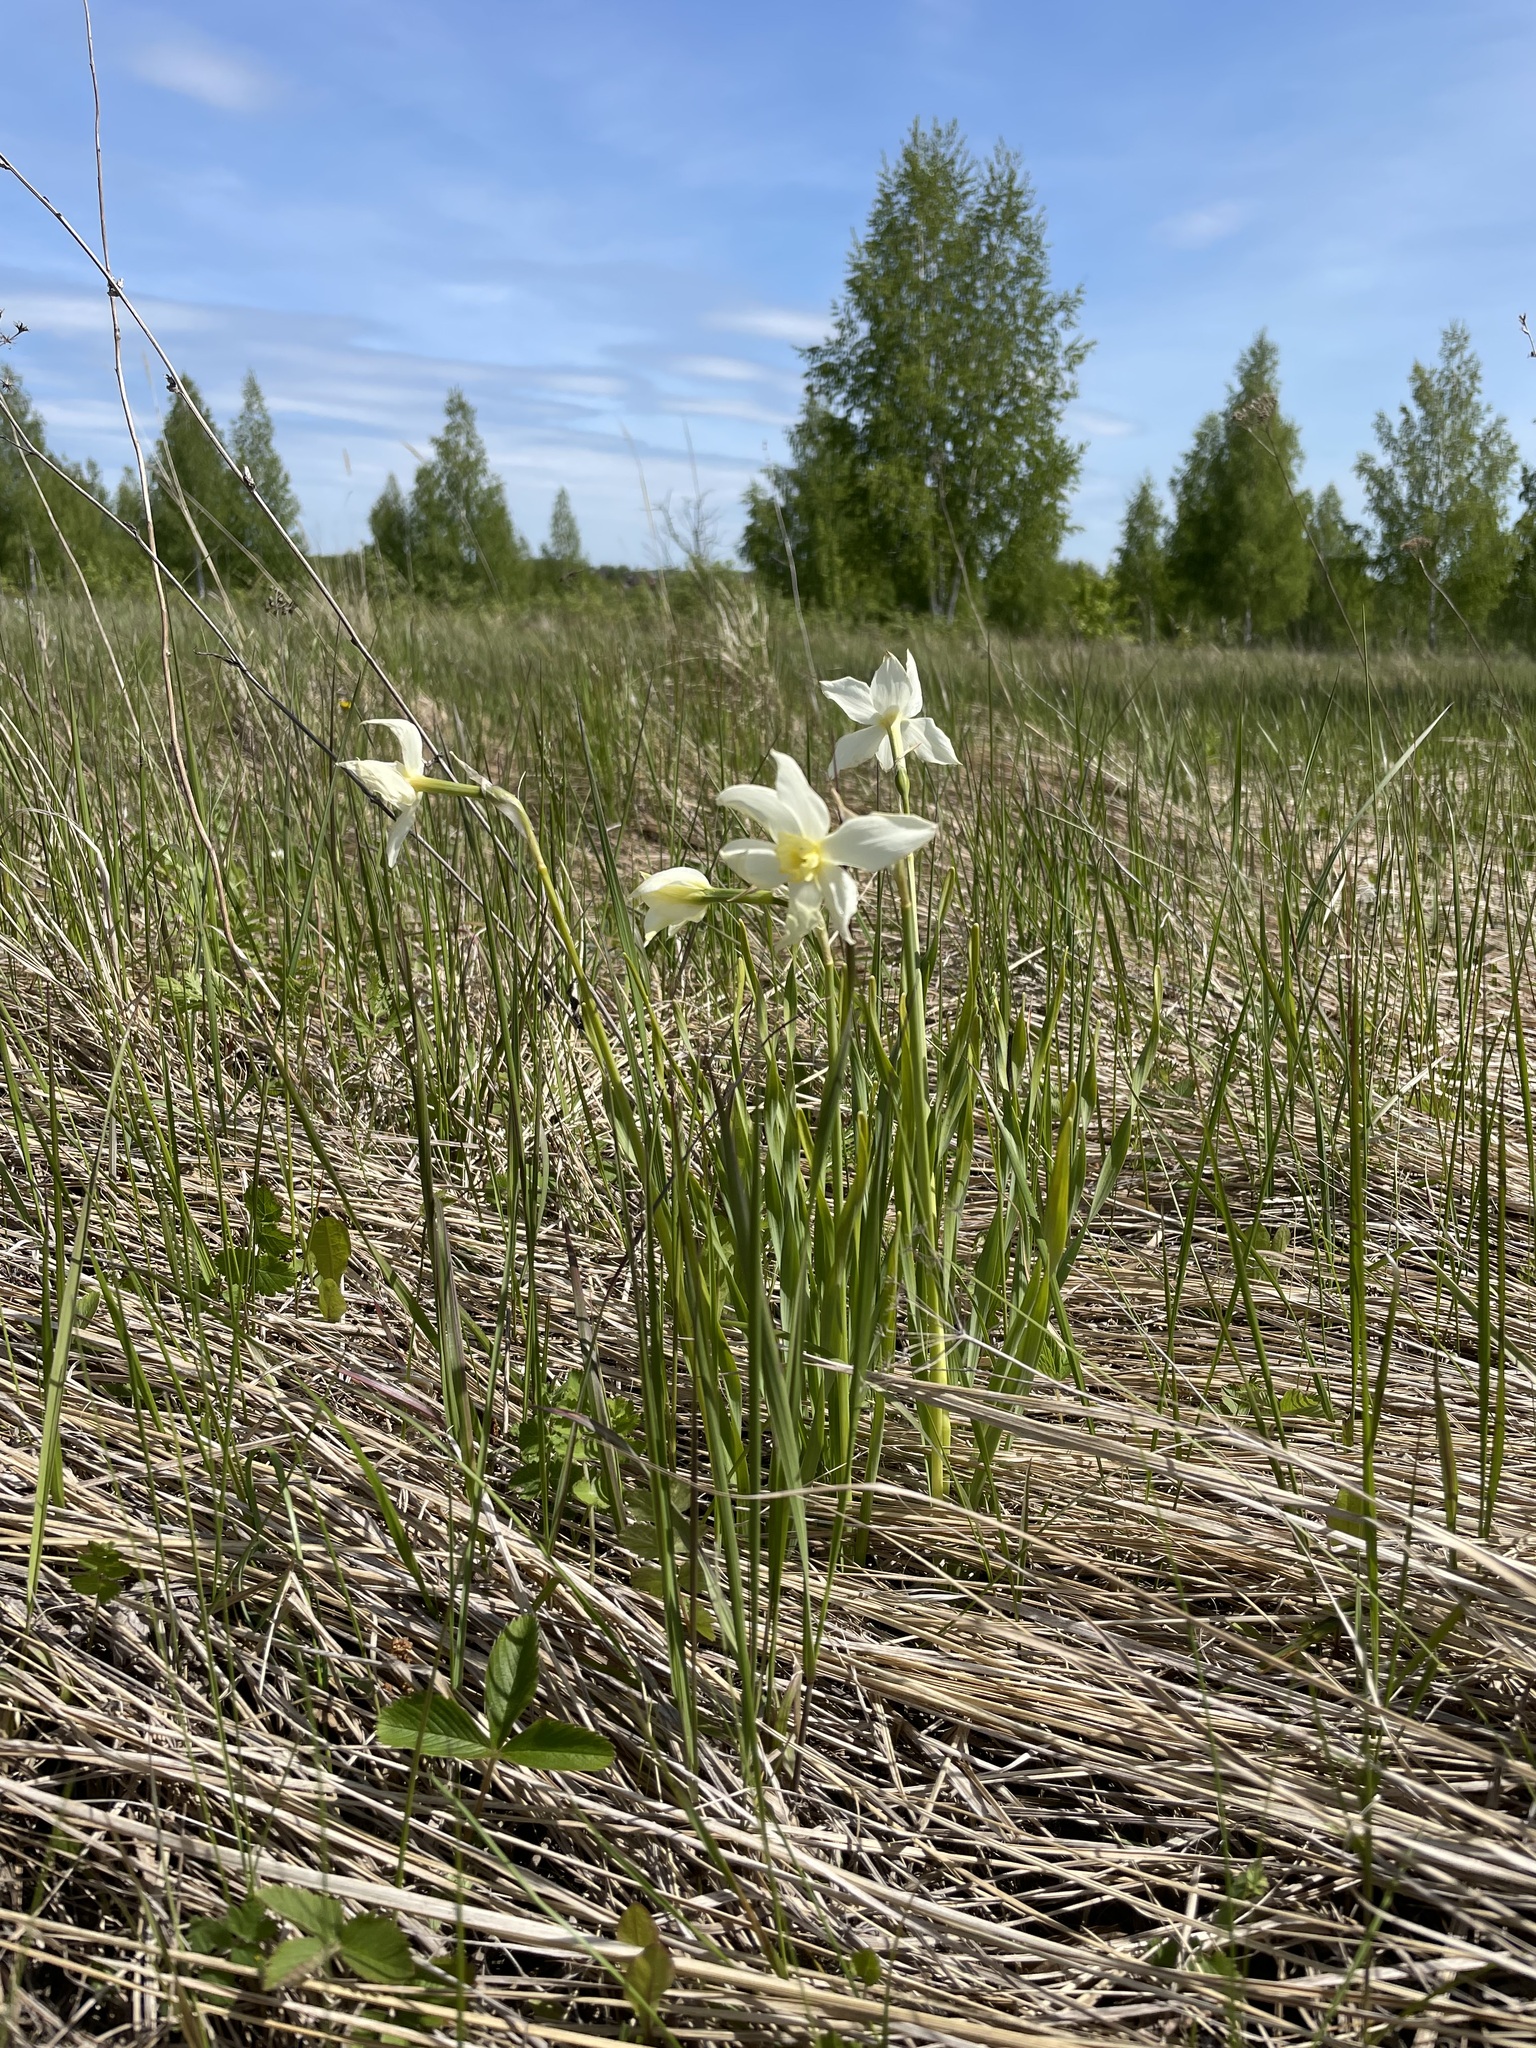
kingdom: Plantae
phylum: Tracheophyta
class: Liliopsida
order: Asparagales
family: Amaryllidaceae
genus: Narcissus
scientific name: Narcissus poeticus
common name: Pheasant's-eye daffodil
